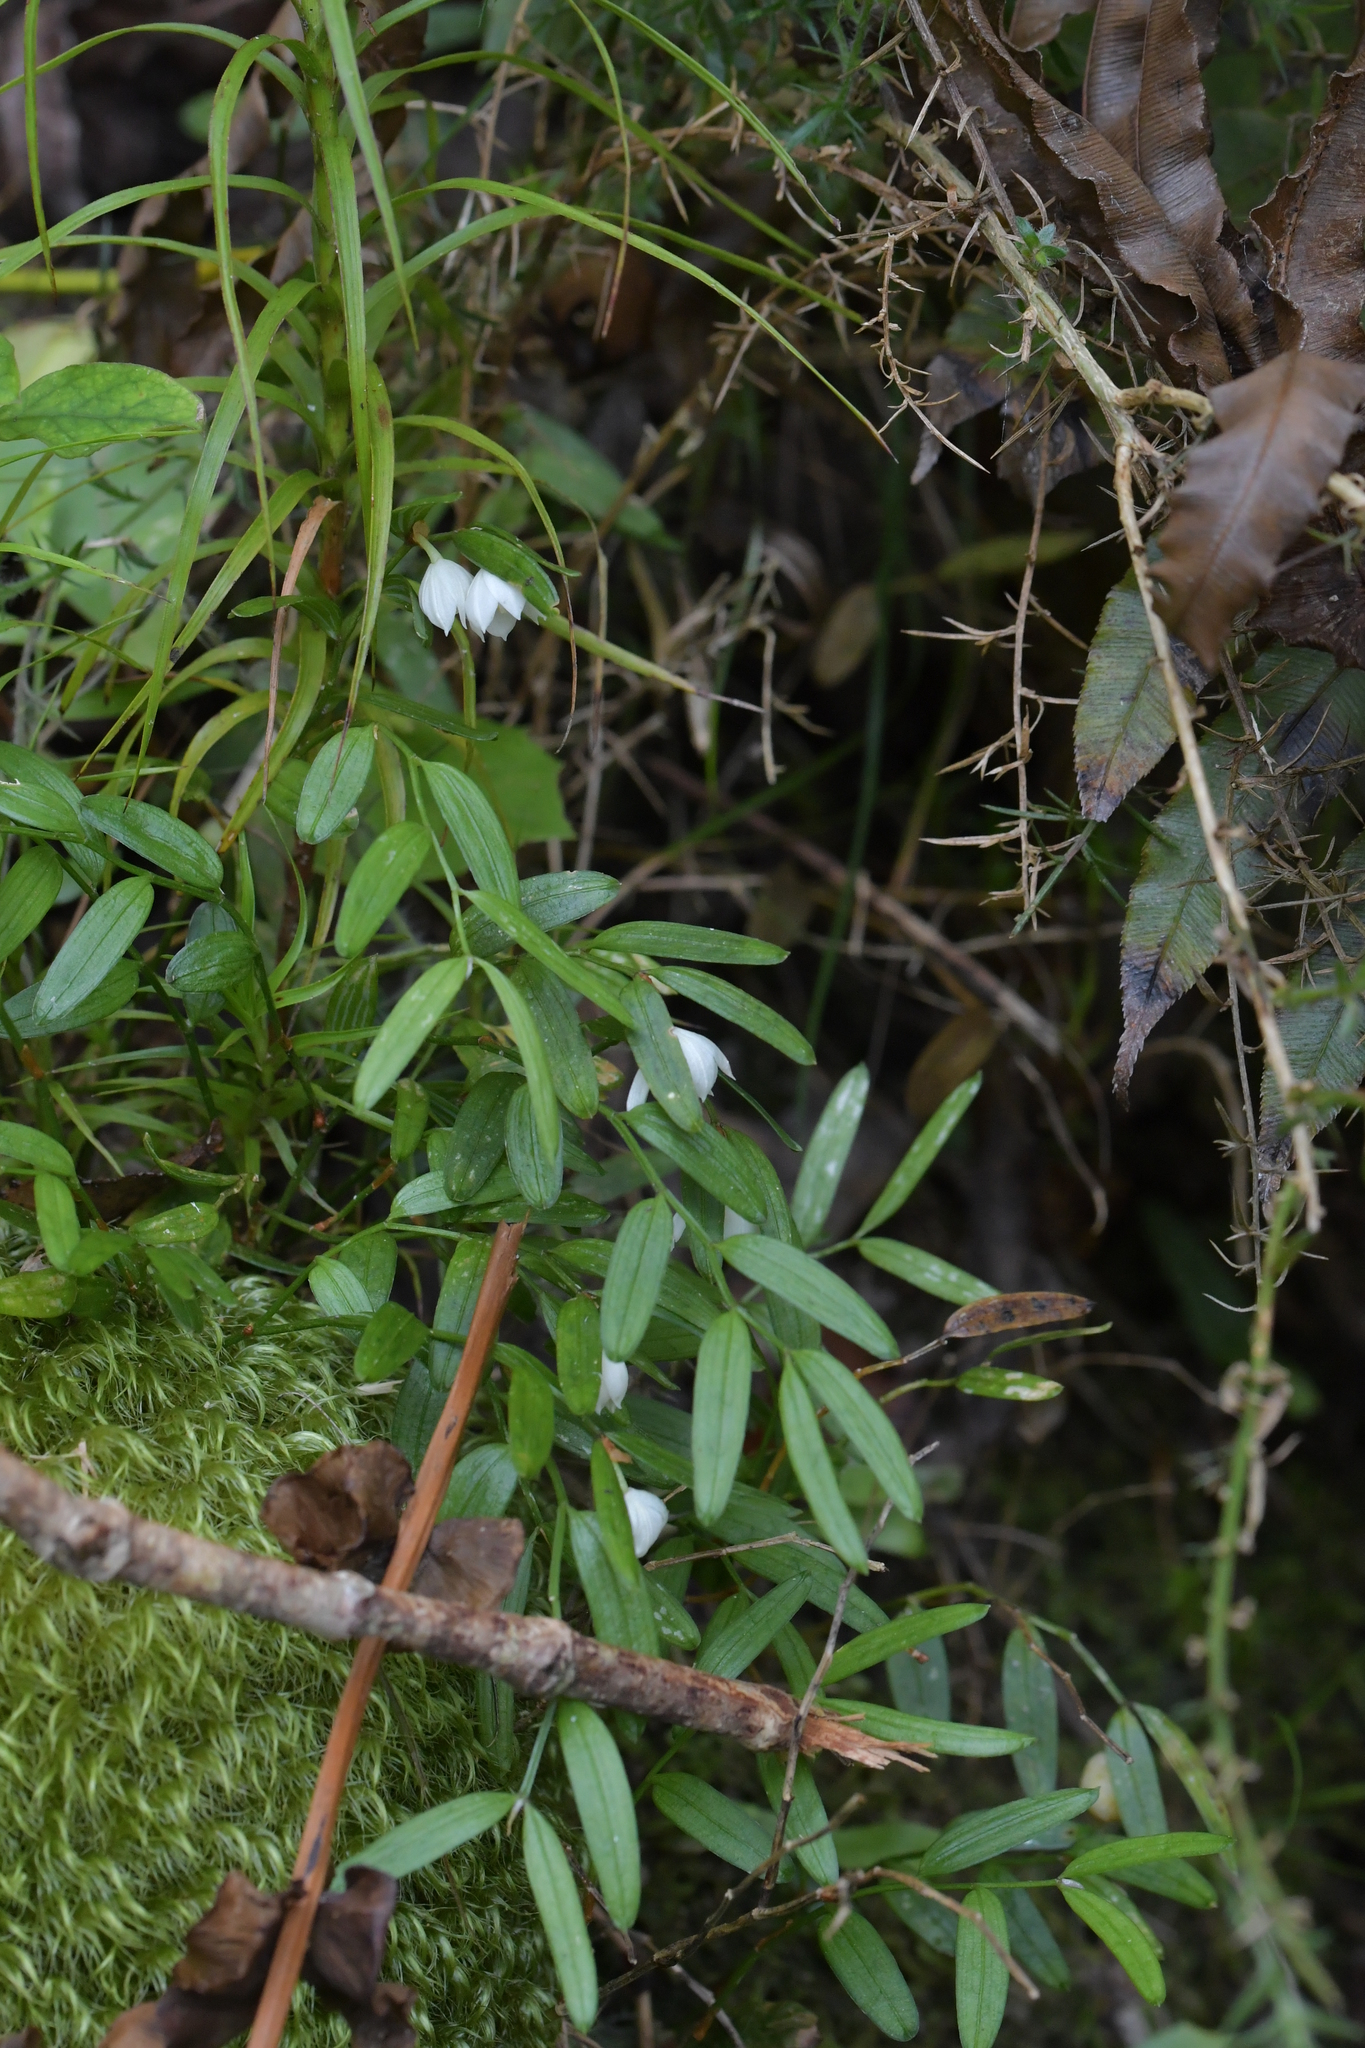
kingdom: Plantae
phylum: Tracheophyta
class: Liliopsida
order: Liliales
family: Alstroemeriaceae
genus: Luzuriaga
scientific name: Luzuriaga parviflora
